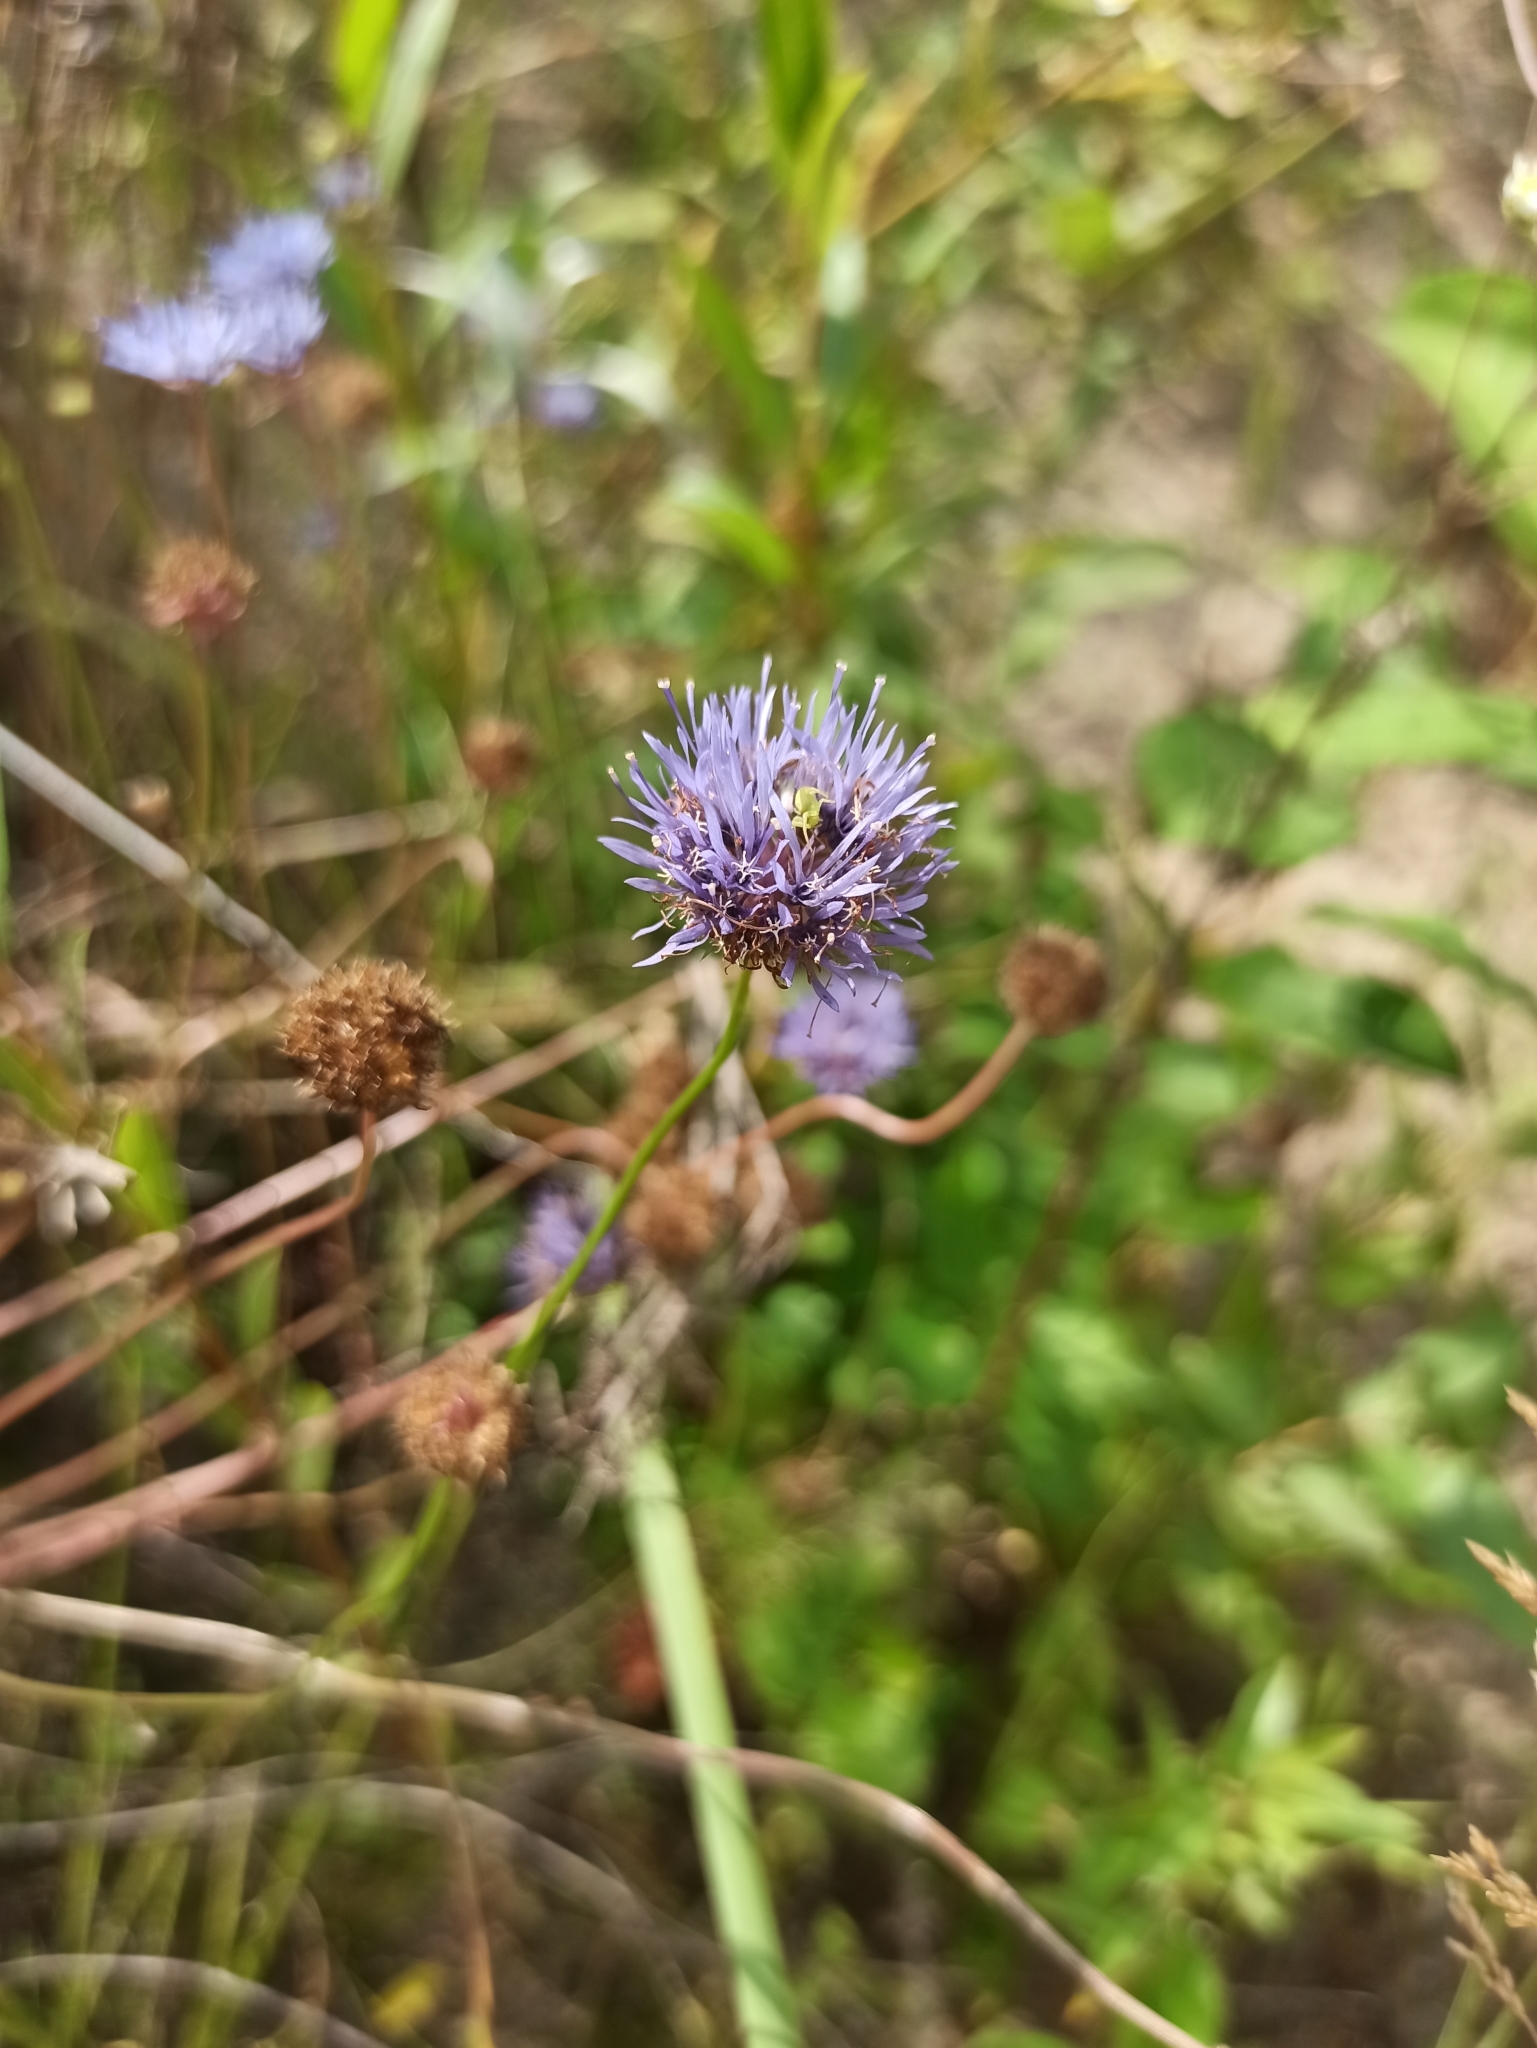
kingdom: Plantae
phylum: Tracheophyta
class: Magnoliopsida
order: Asterales
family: Campanulaceae
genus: Jasione
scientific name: Jasione montana
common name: Sheep's-bit
